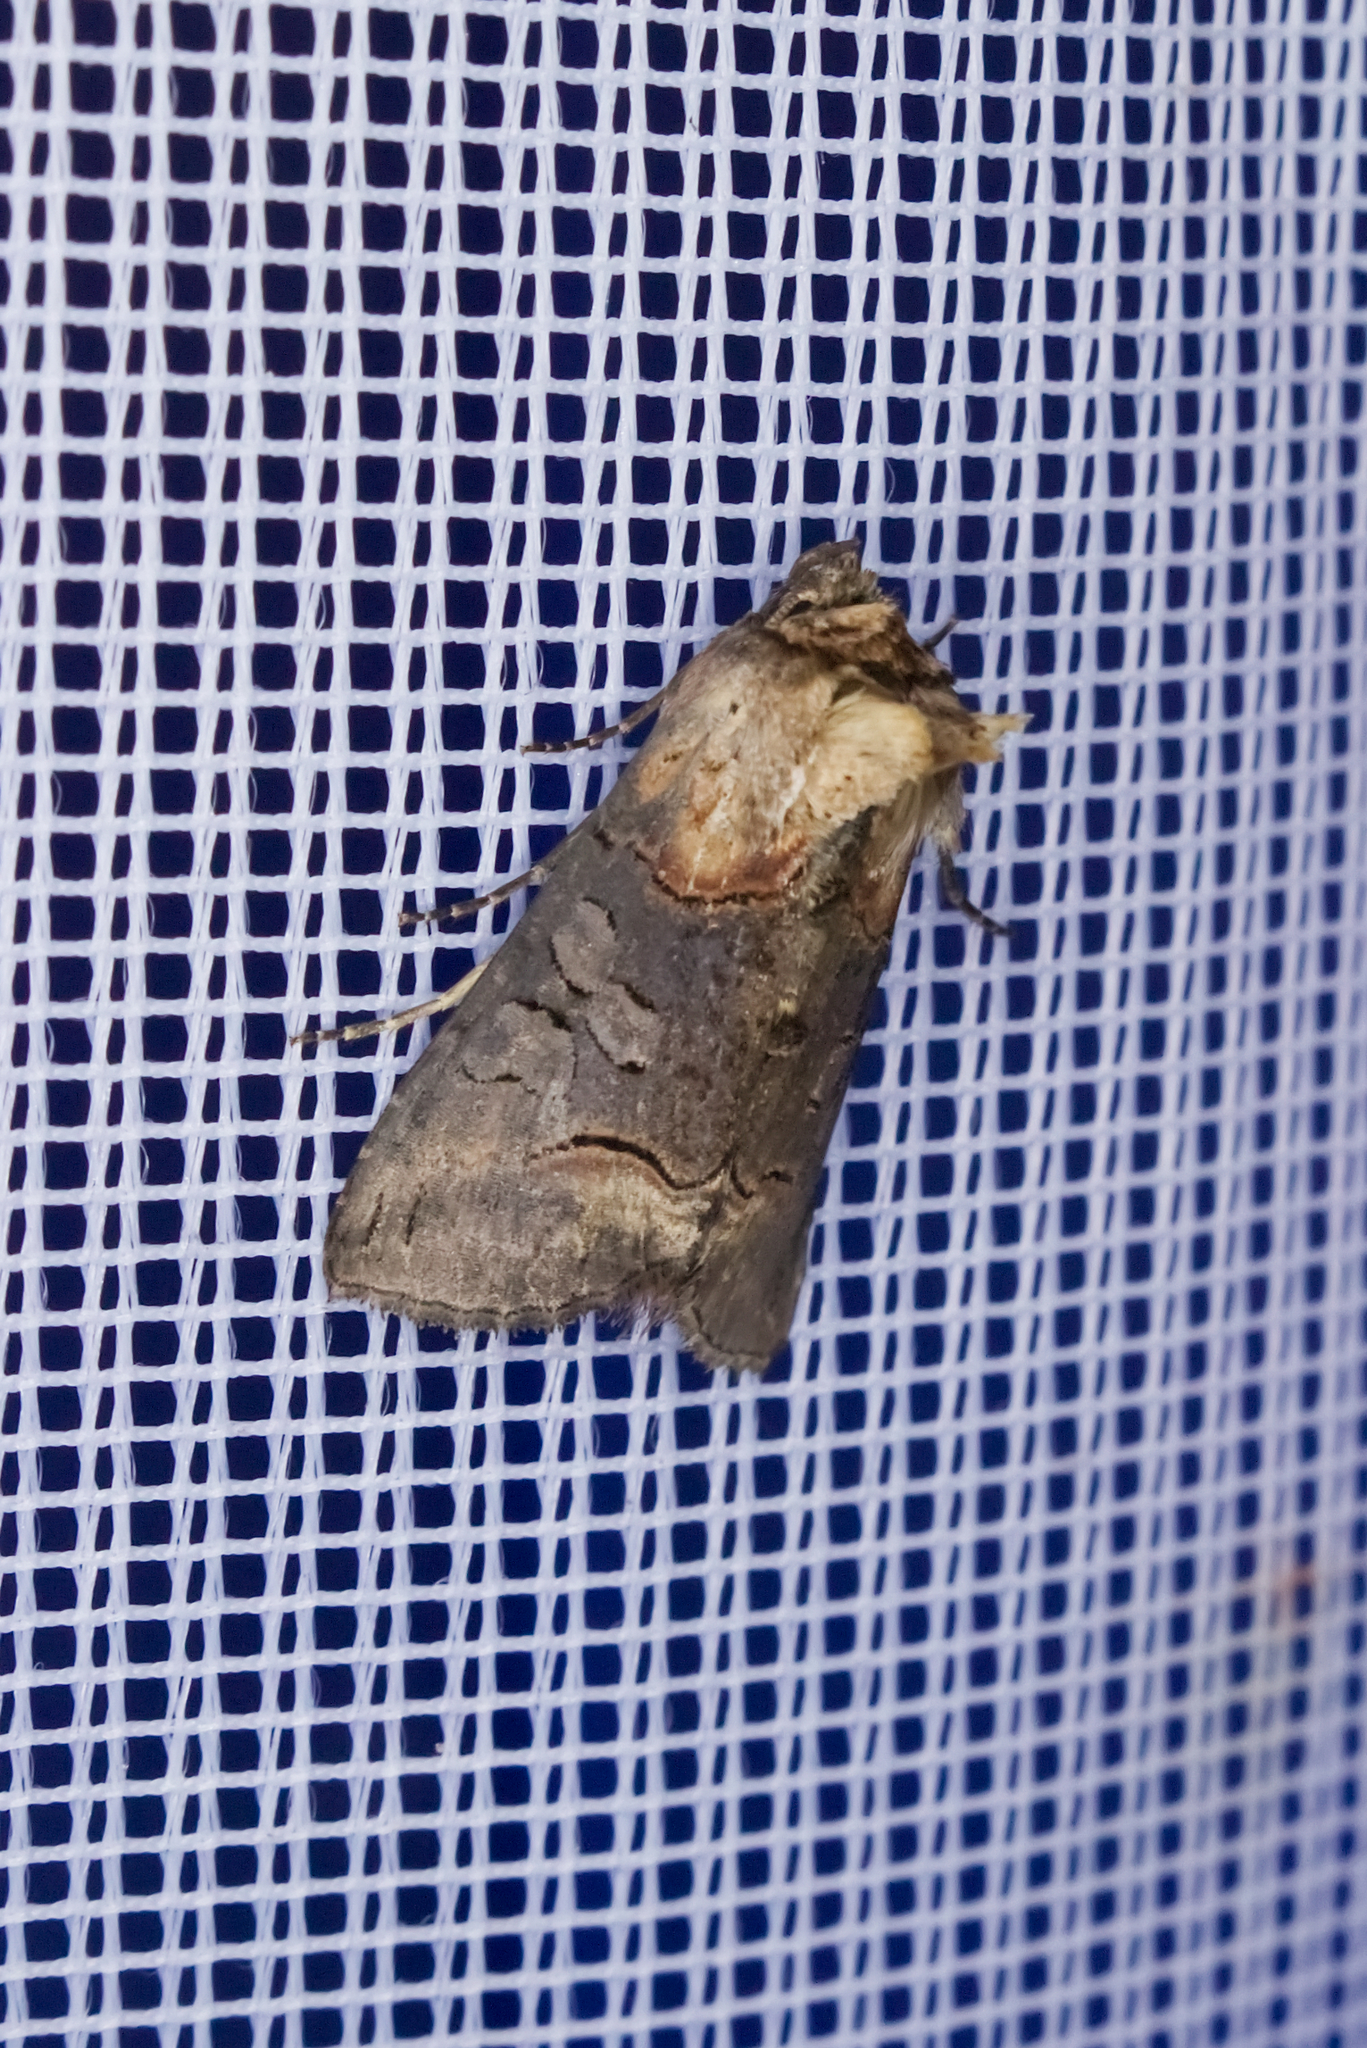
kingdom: Animalia
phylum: Arthropoda
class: Insecta
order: Lepidoptera
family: Noctuidae
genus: Abrostola
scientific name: Abrostola triplasia
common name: Dark spectacle
